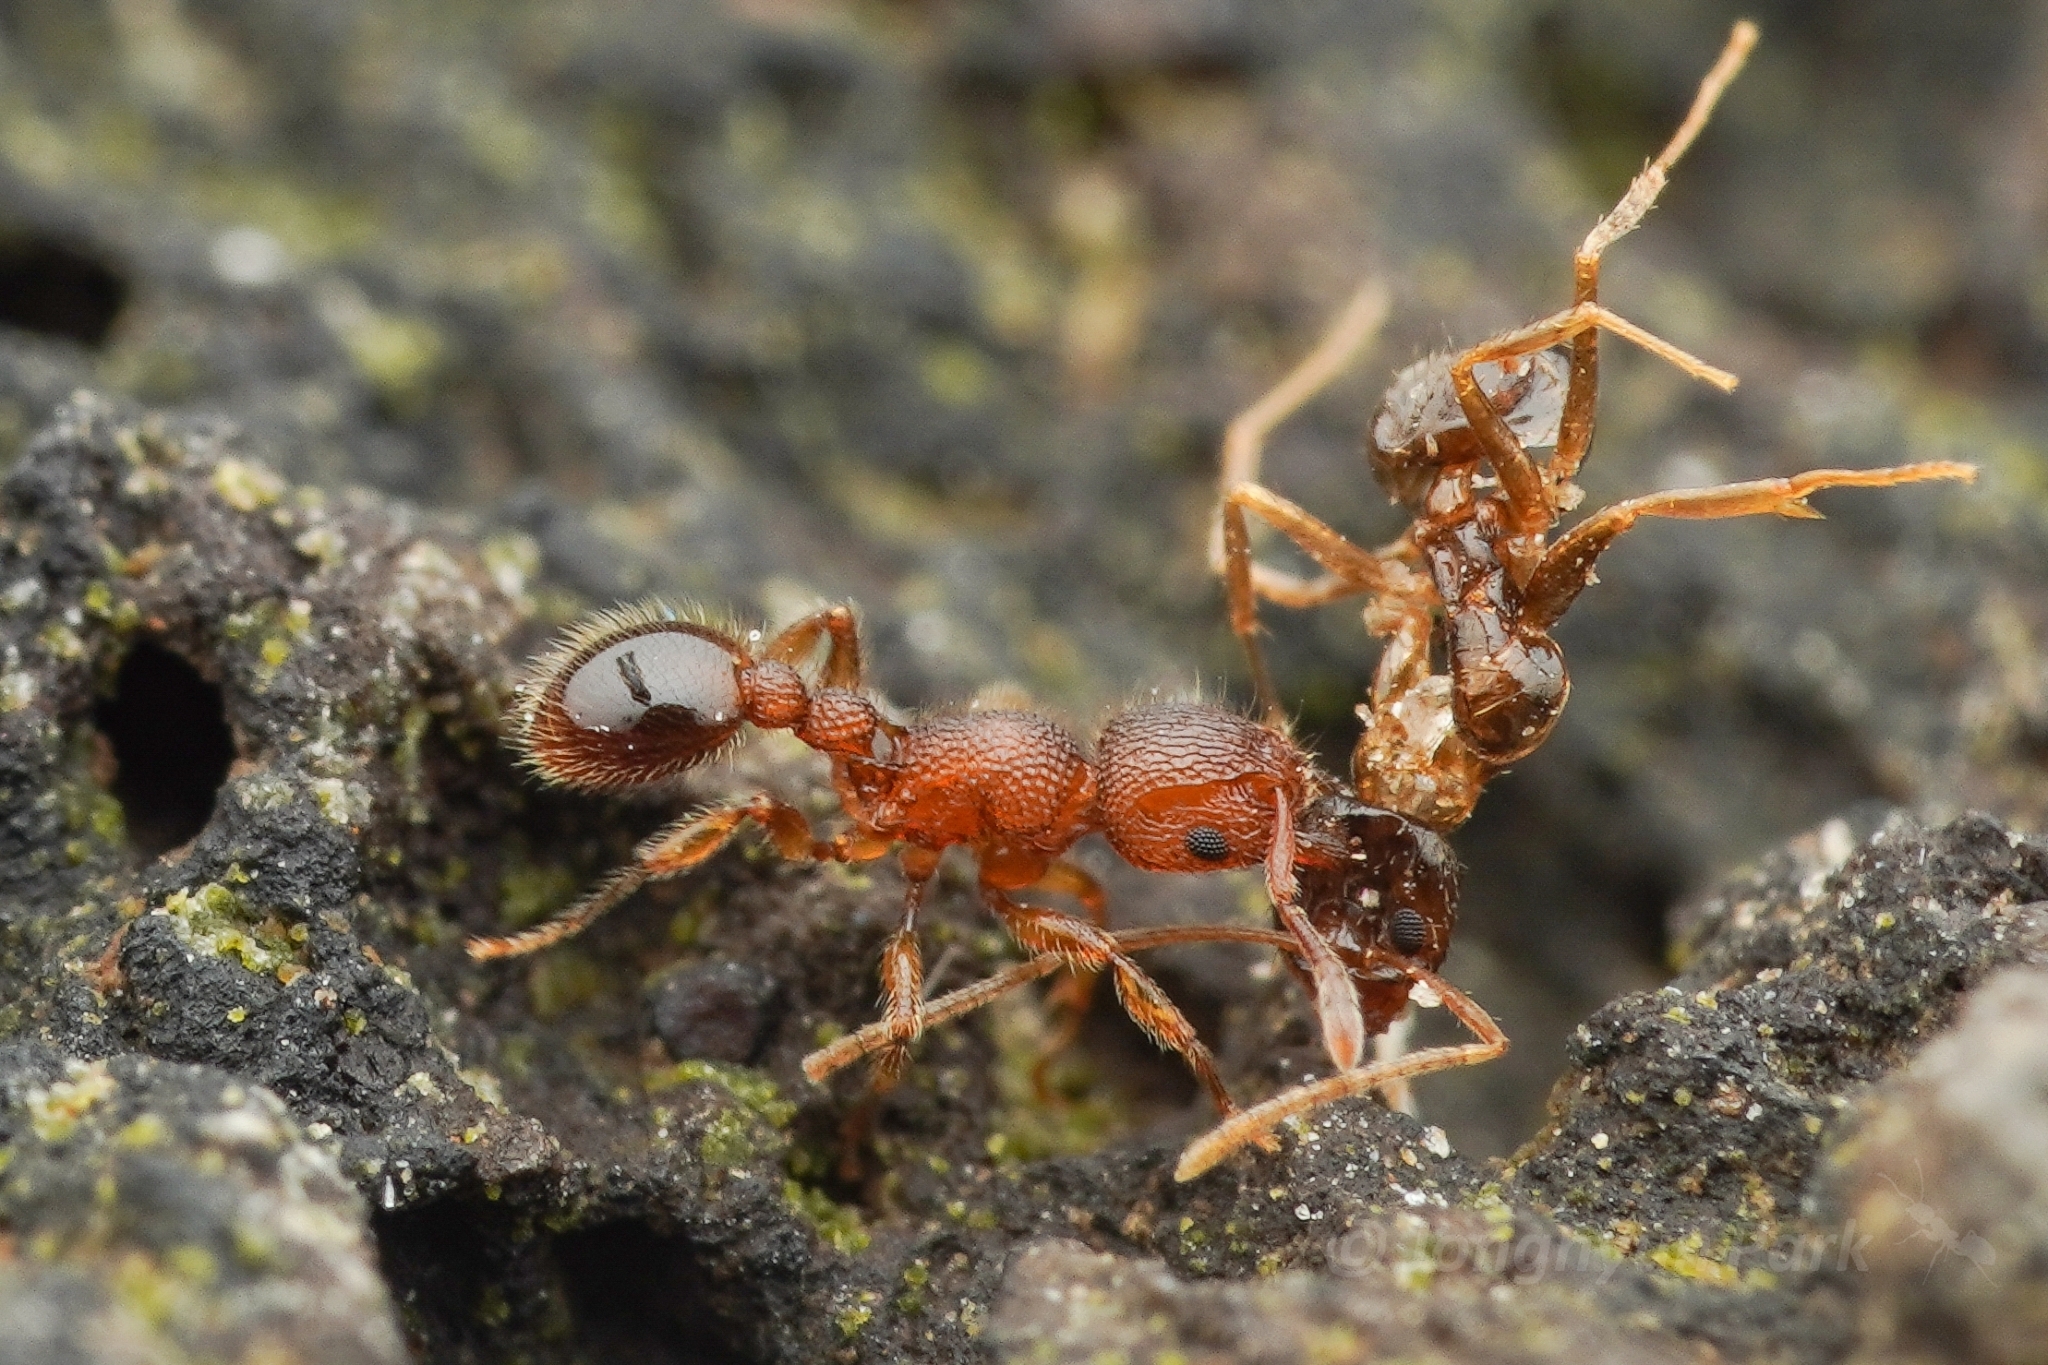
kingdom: Animalia
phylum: Arthropoda
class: Insecta
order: Hymenoptera
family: Formicidae
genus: Tetramorium
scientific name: Tetramorium lanuginosum
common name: Ant
